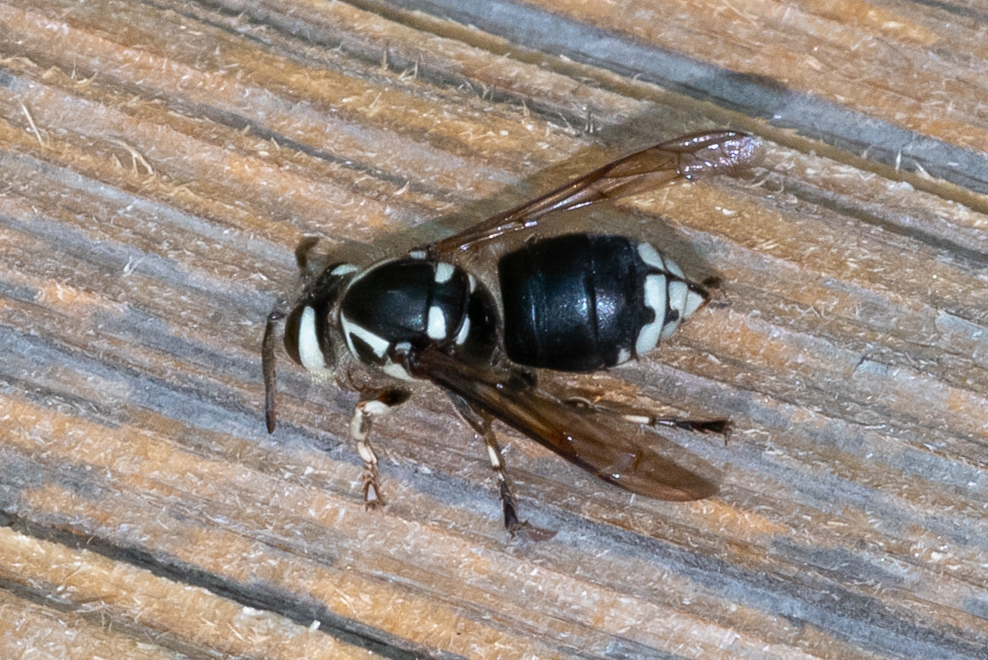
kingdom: Animalia
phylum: Arthropoda
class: Insecta
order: Hymenoptera
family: Vespidae
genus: Dolichovespula
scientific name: Dolichovespula maculata
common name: Bald-faced hornet
